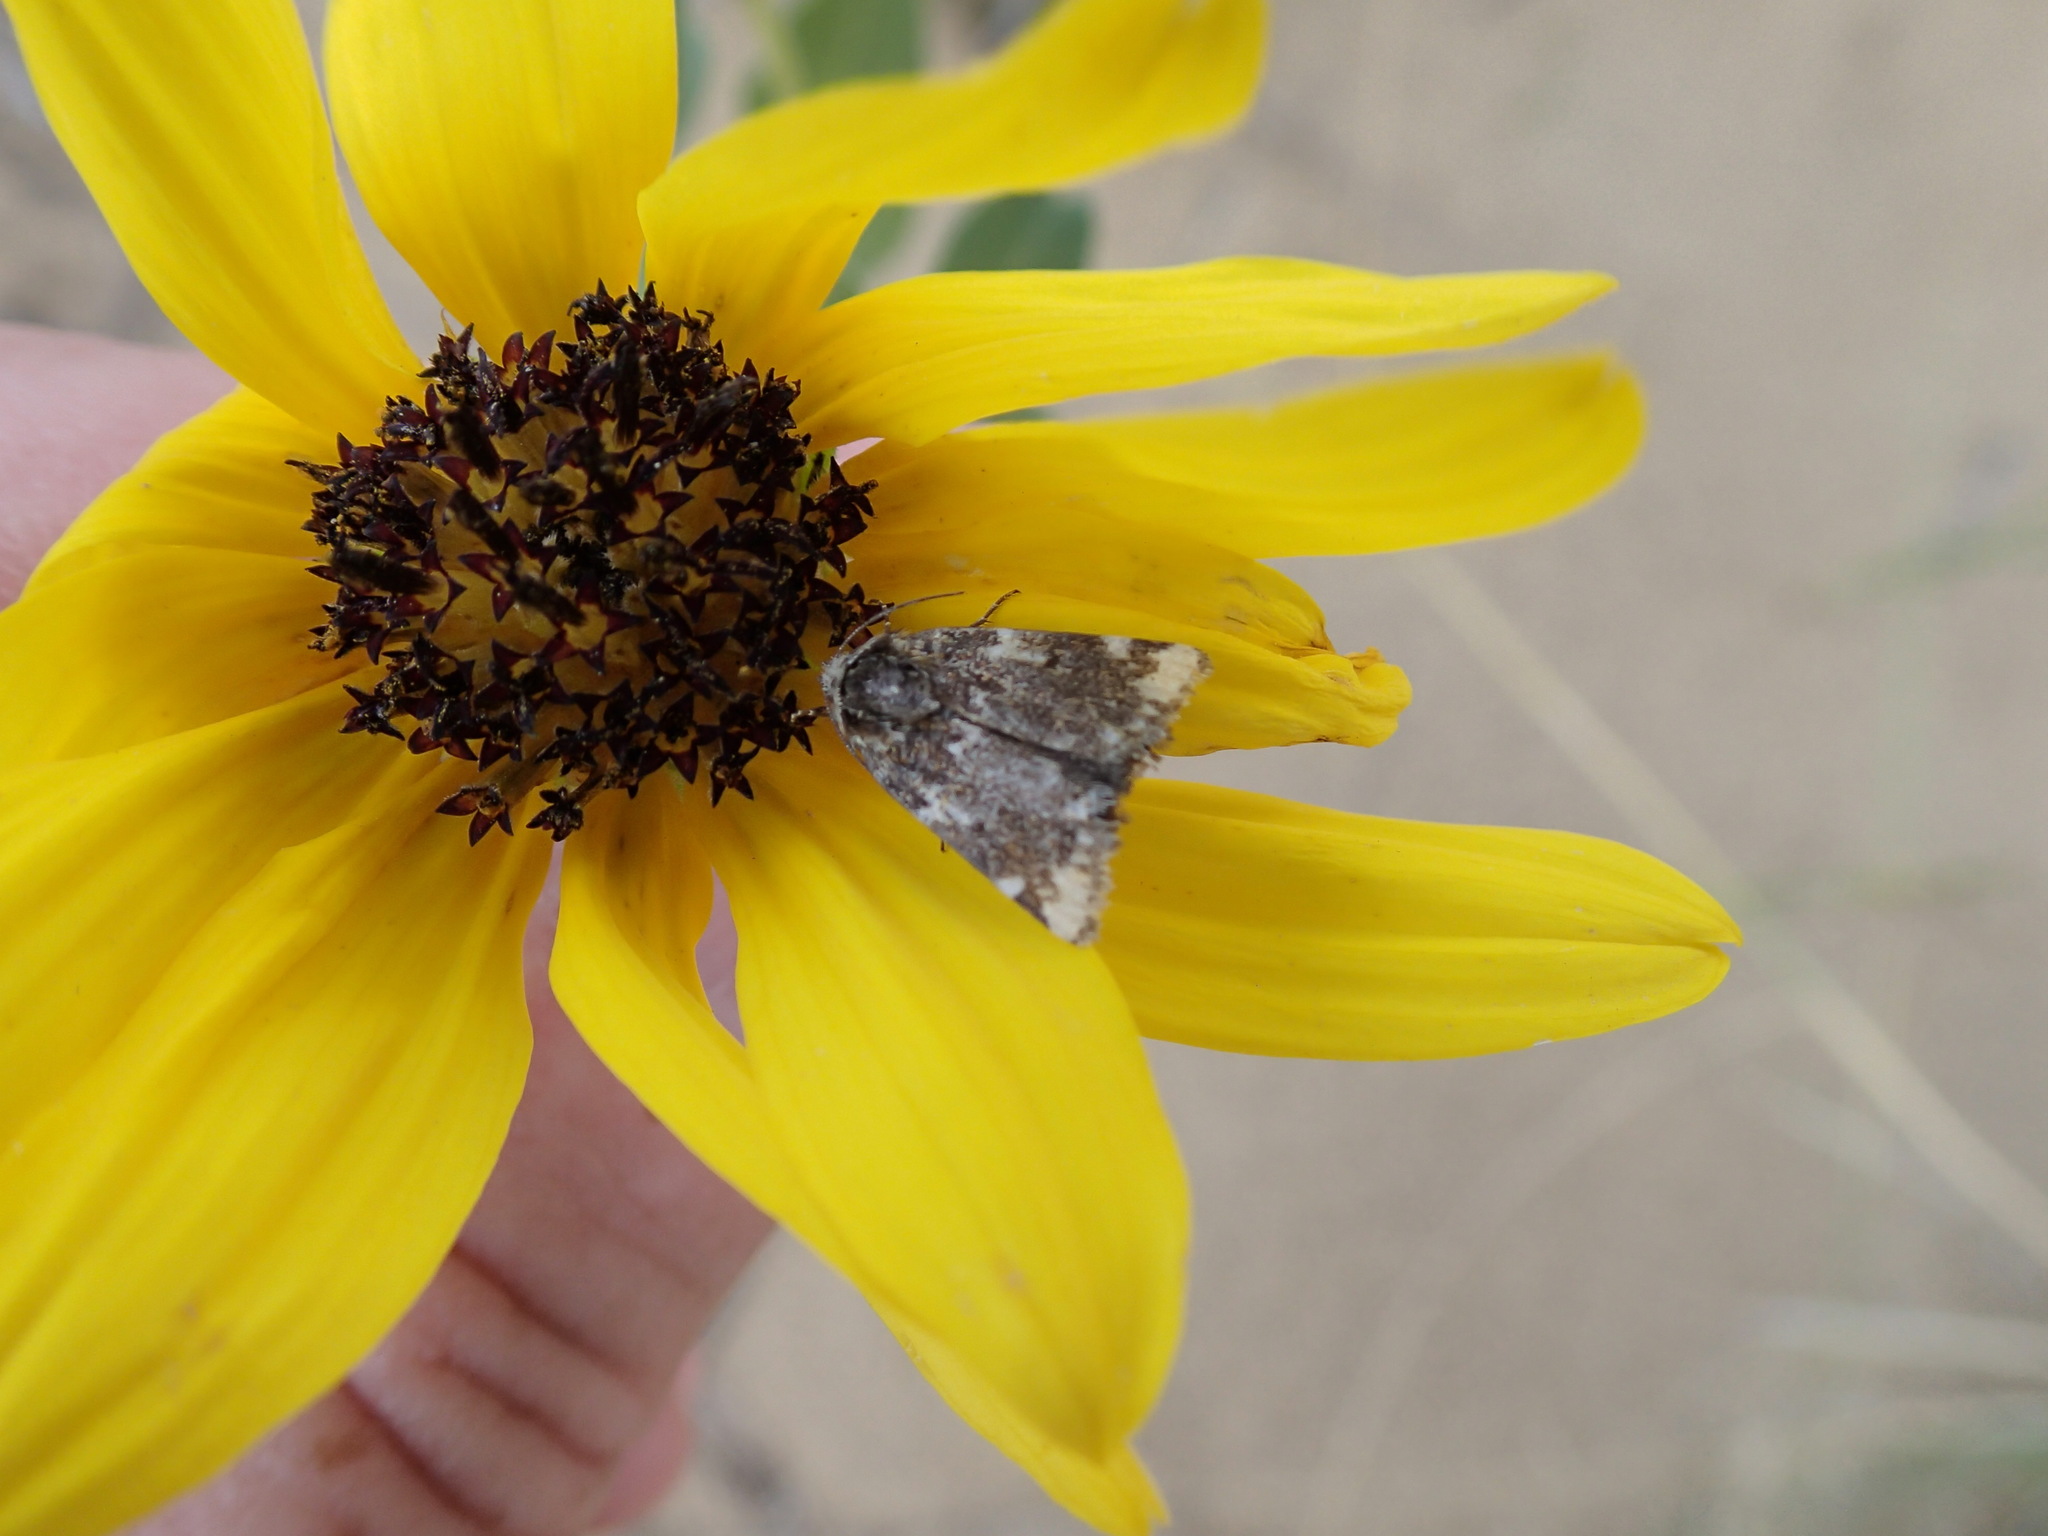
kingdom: Animalia
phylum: Arthropoda
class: Insecta
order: Lepidoptera
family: Noctuidae
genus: Schinia
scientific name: Schinia avemensis
